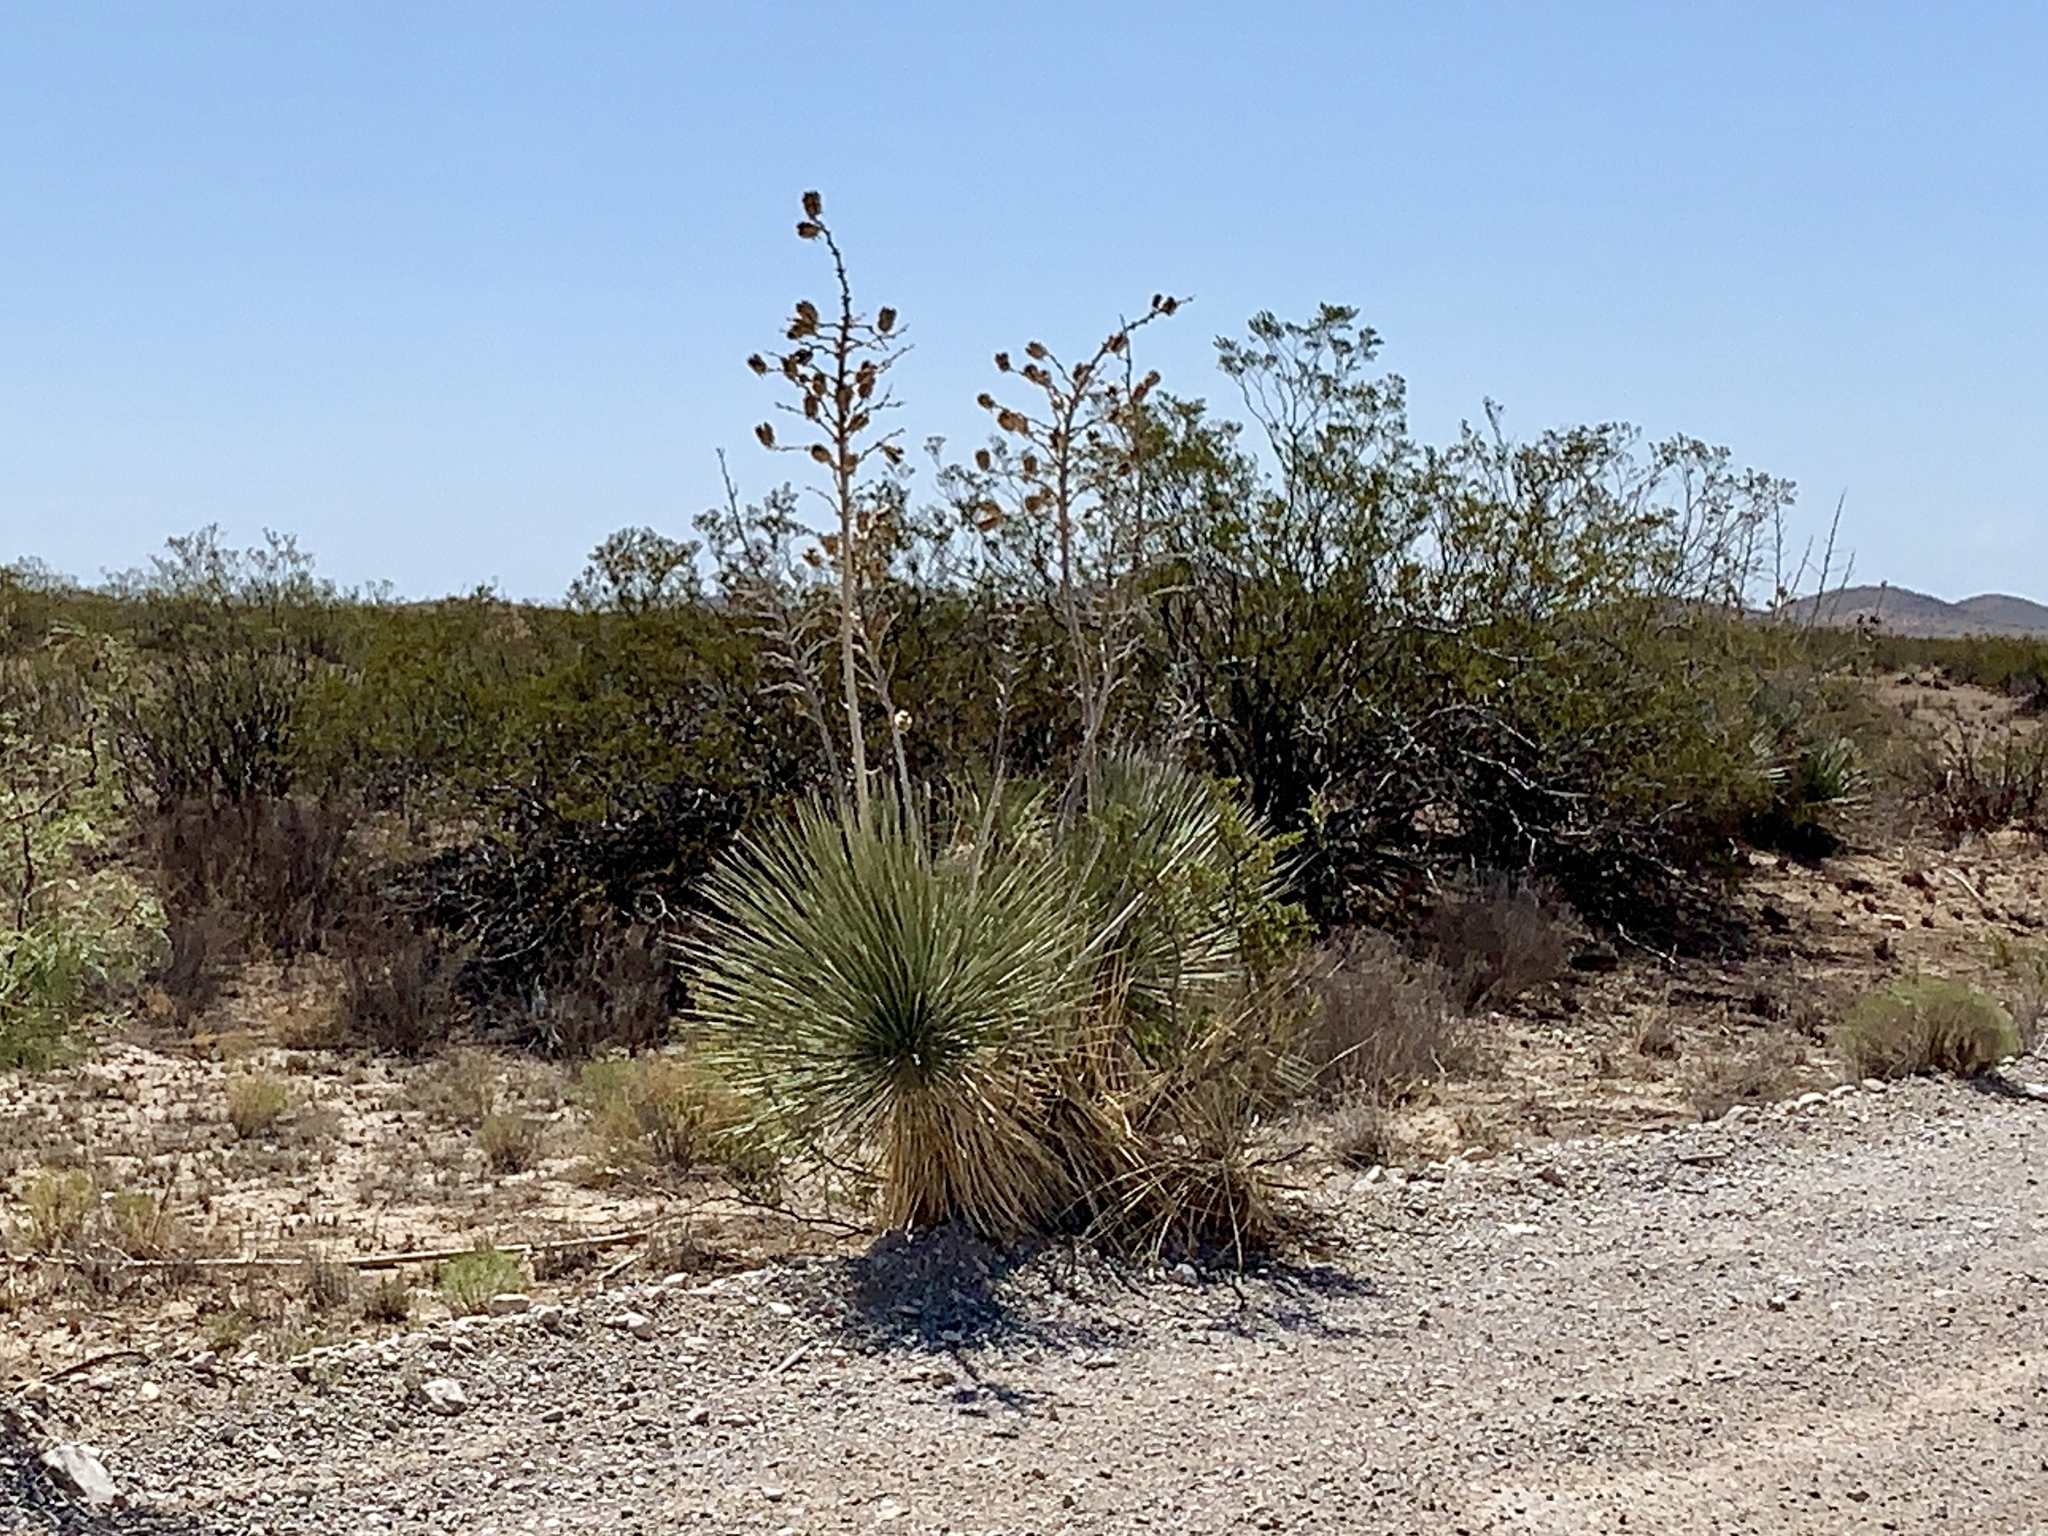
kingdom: Plantae
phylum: Tracheophyta
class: Liliopsida
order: Asparagales
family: Asparagaceae
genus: Yucca
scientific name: Yucca elata
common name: Palmella
